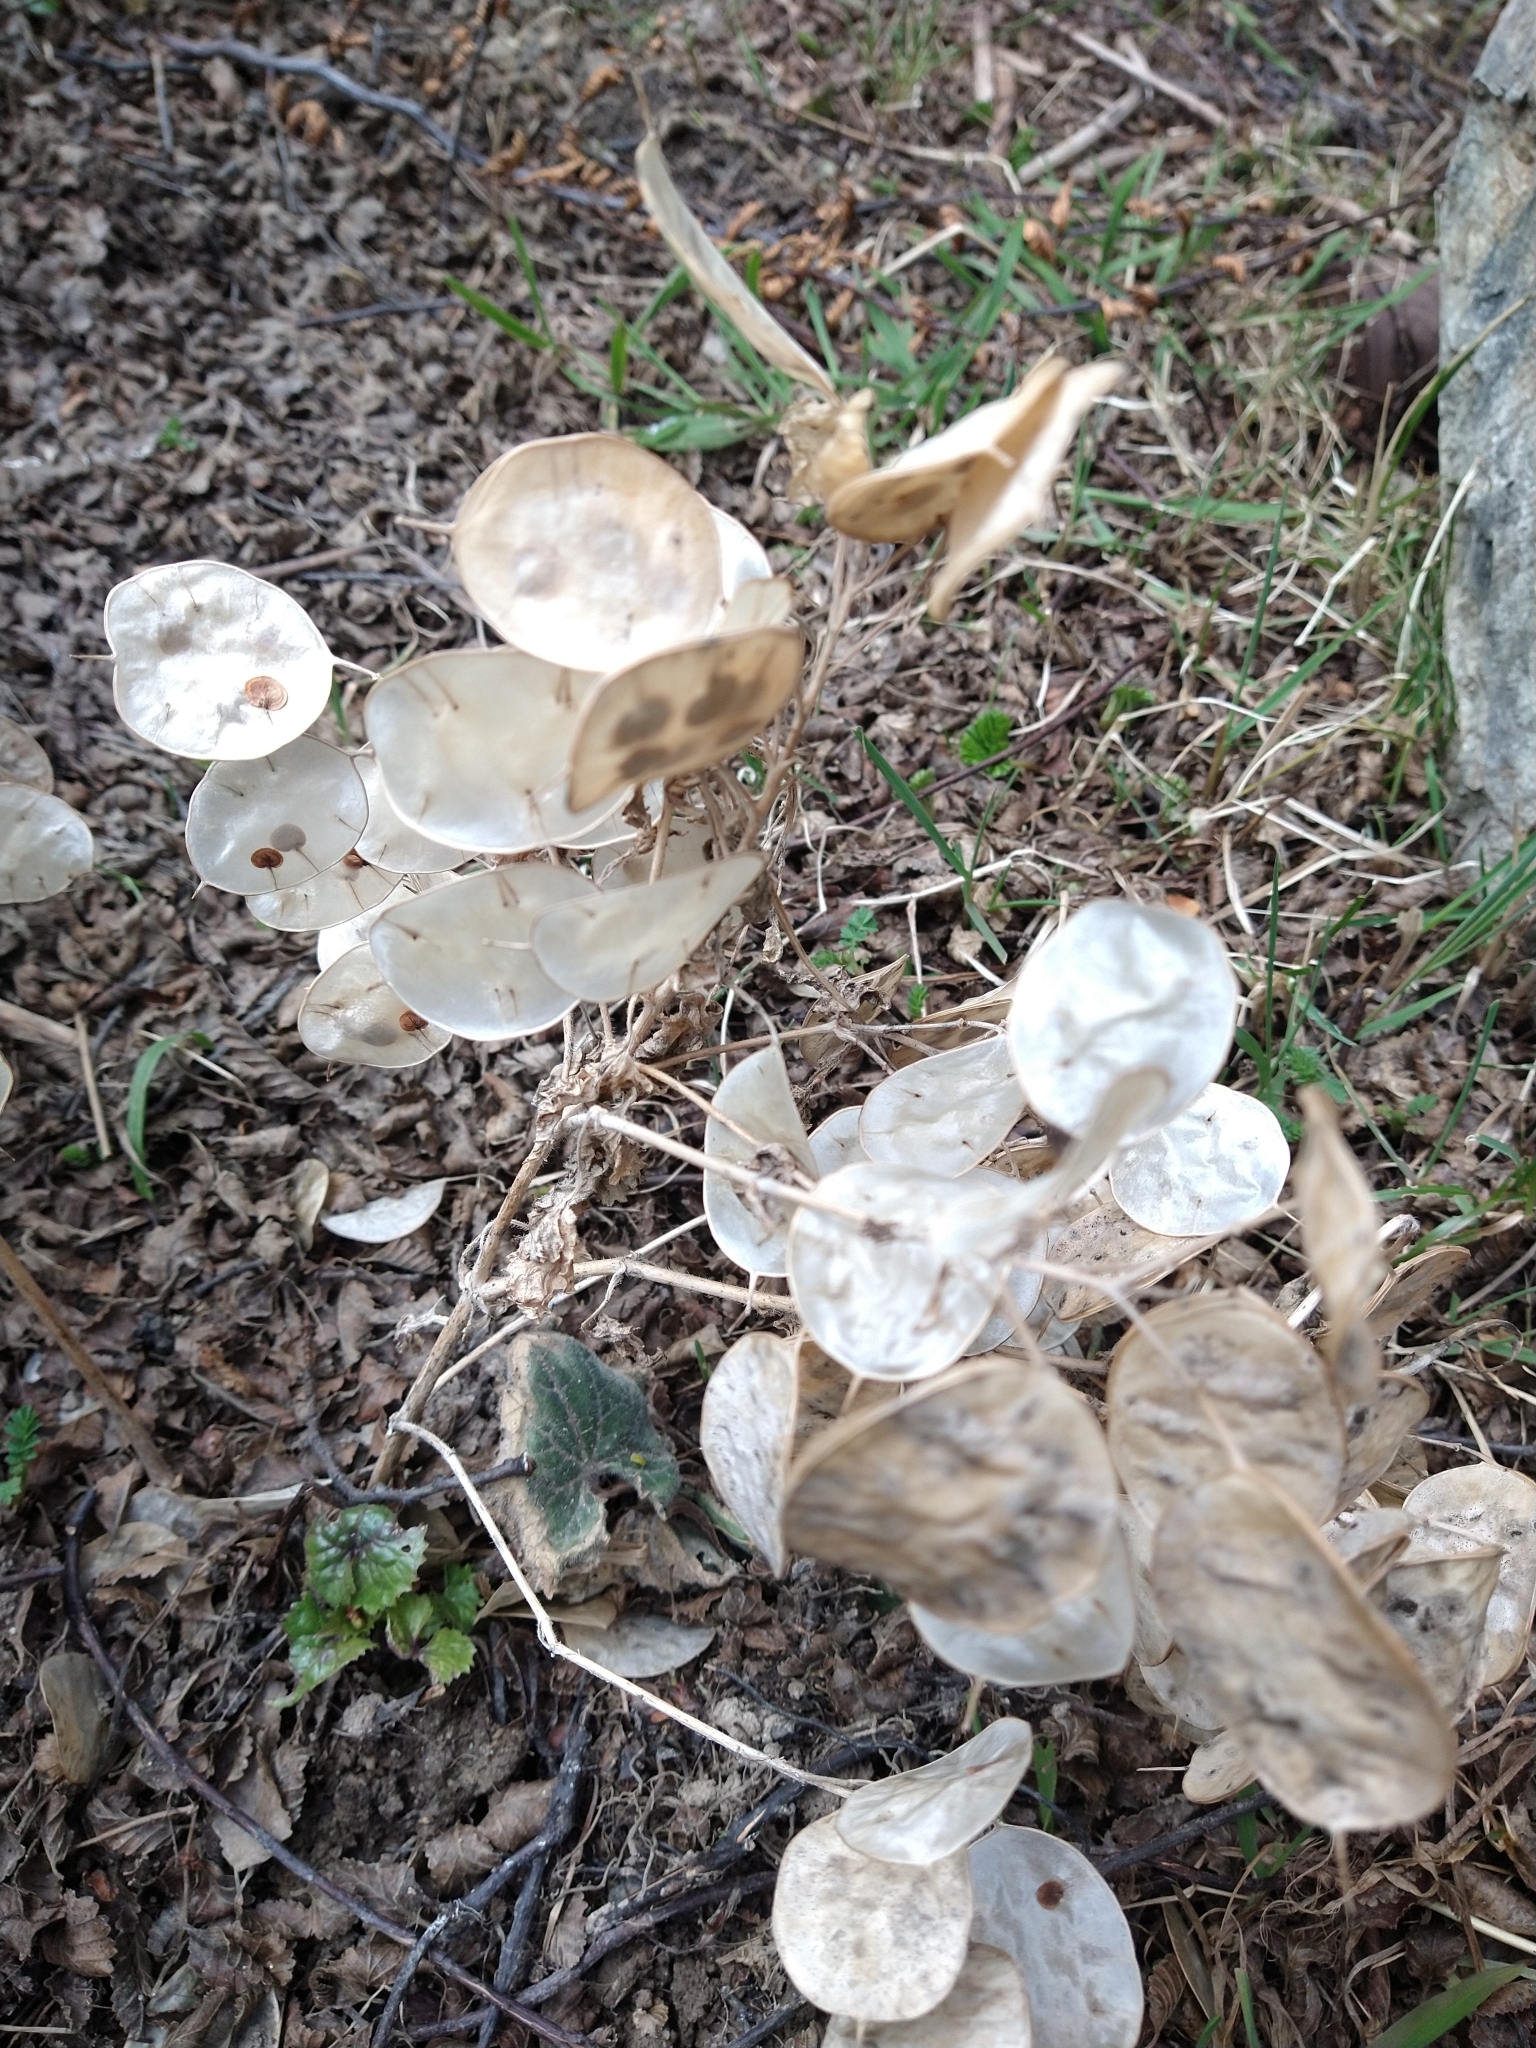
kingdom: Plantae
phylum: Tracheophyta
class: Magnoliopsida
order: Brassicales
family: Brassicaceae
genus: Lunaria
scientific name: Lunaria annua
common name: Honesty
